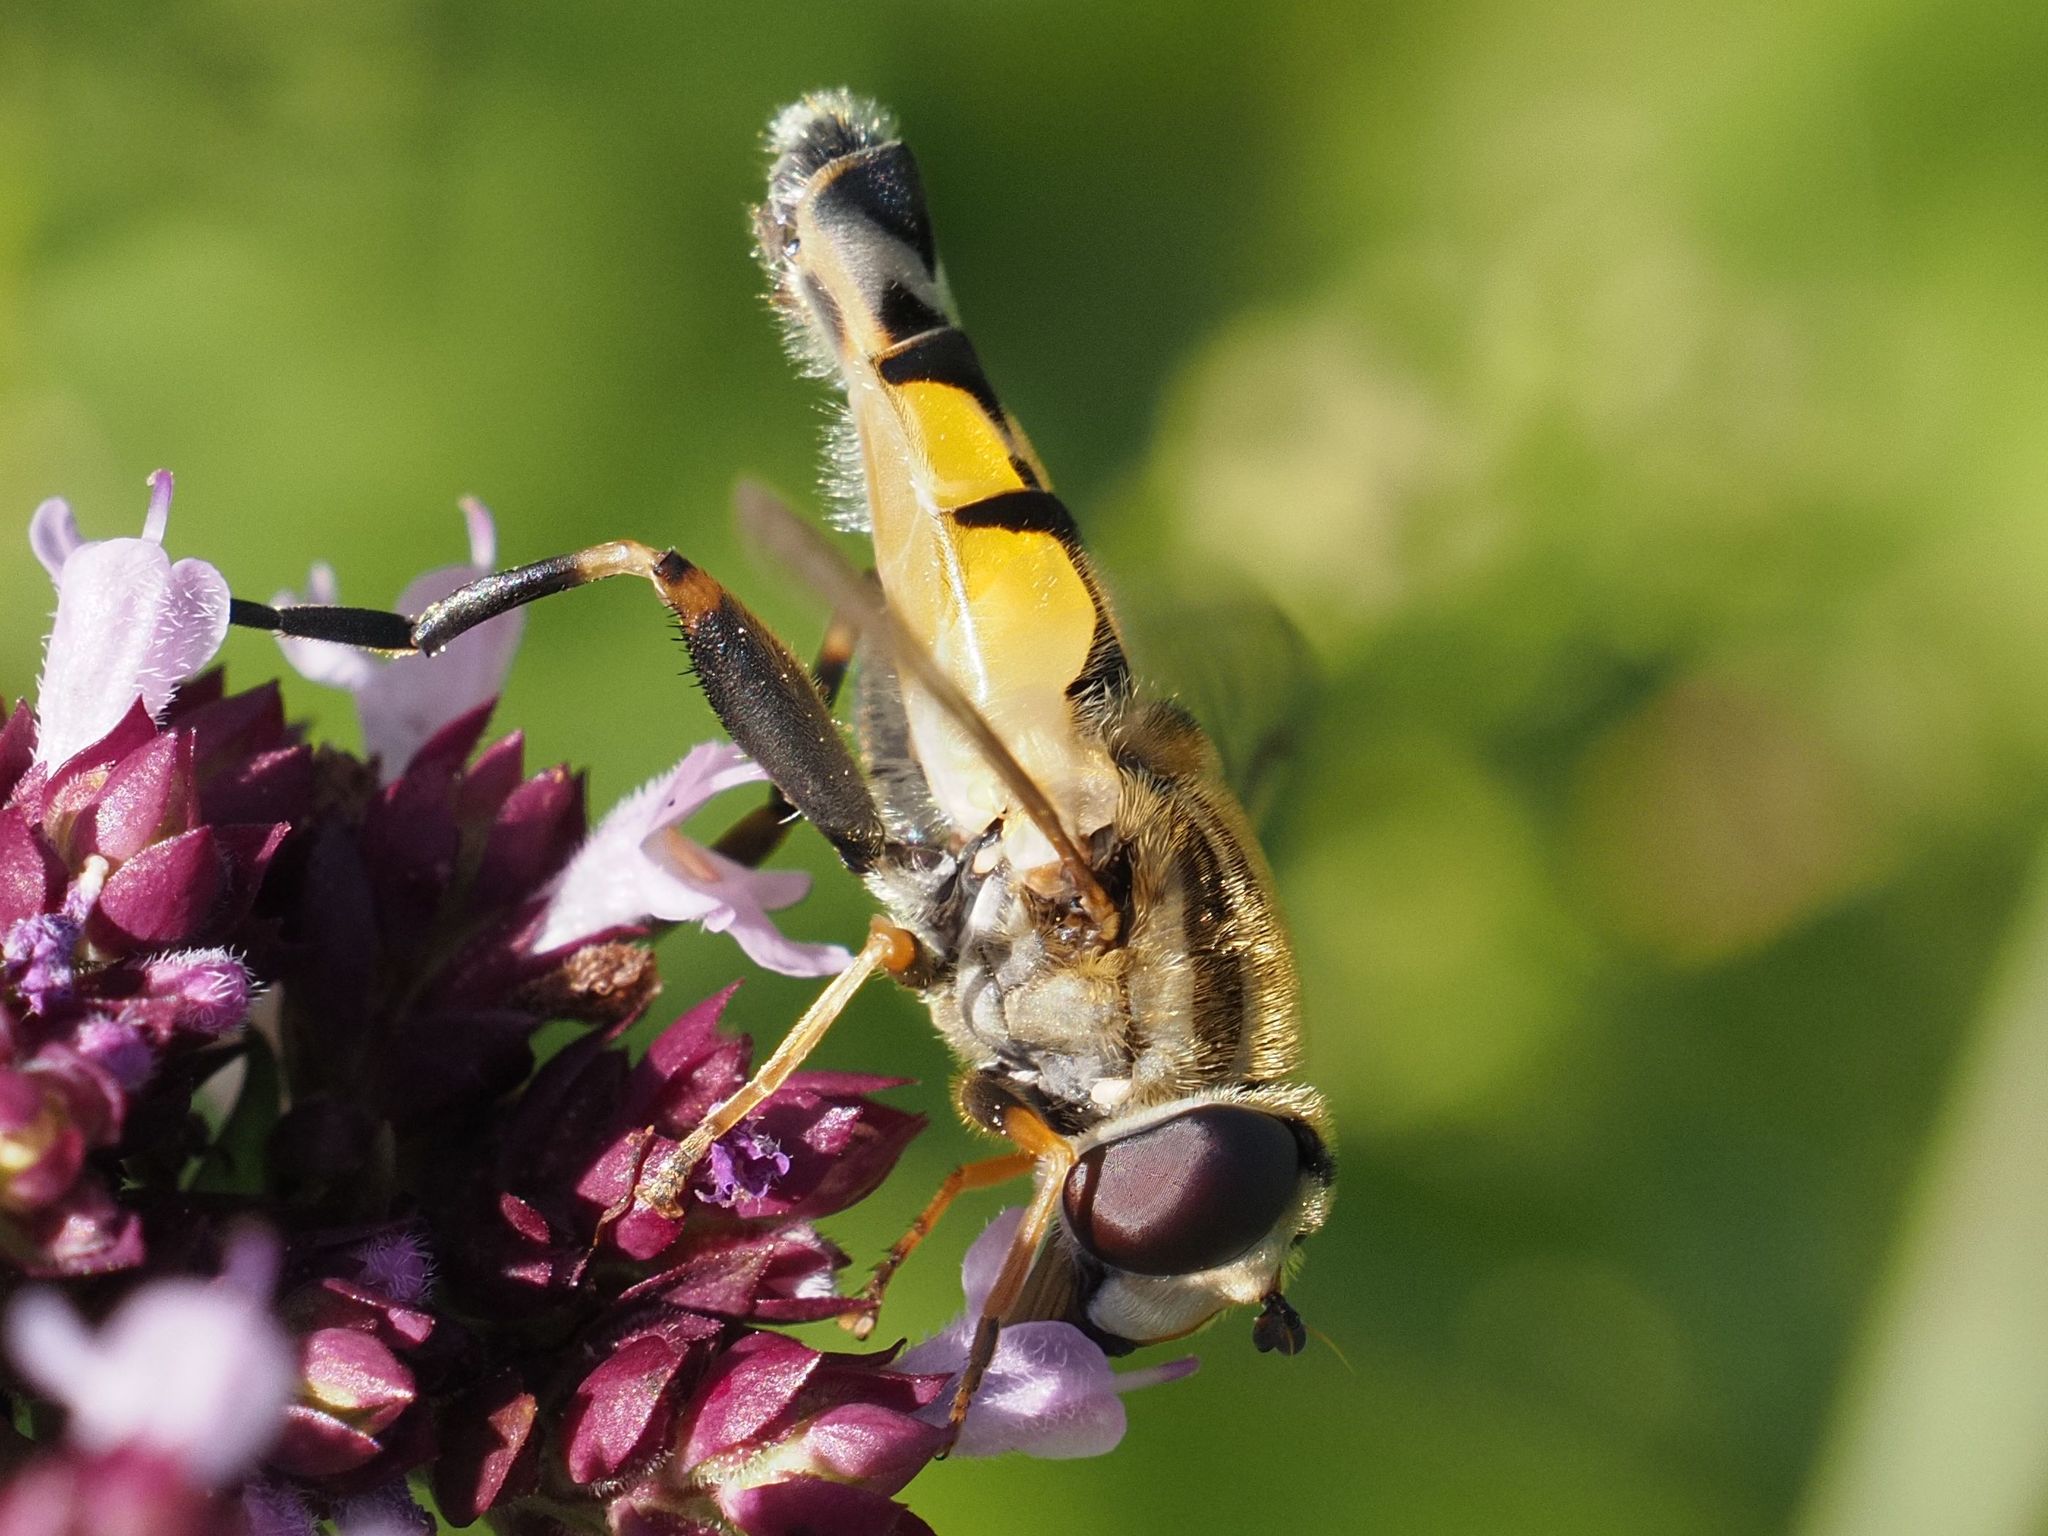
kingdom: Animalia
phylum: Arthropoda
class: Insecta
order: Diptera
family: Syrphidae
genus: Helophilus
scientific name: Helophilus trivittatus
